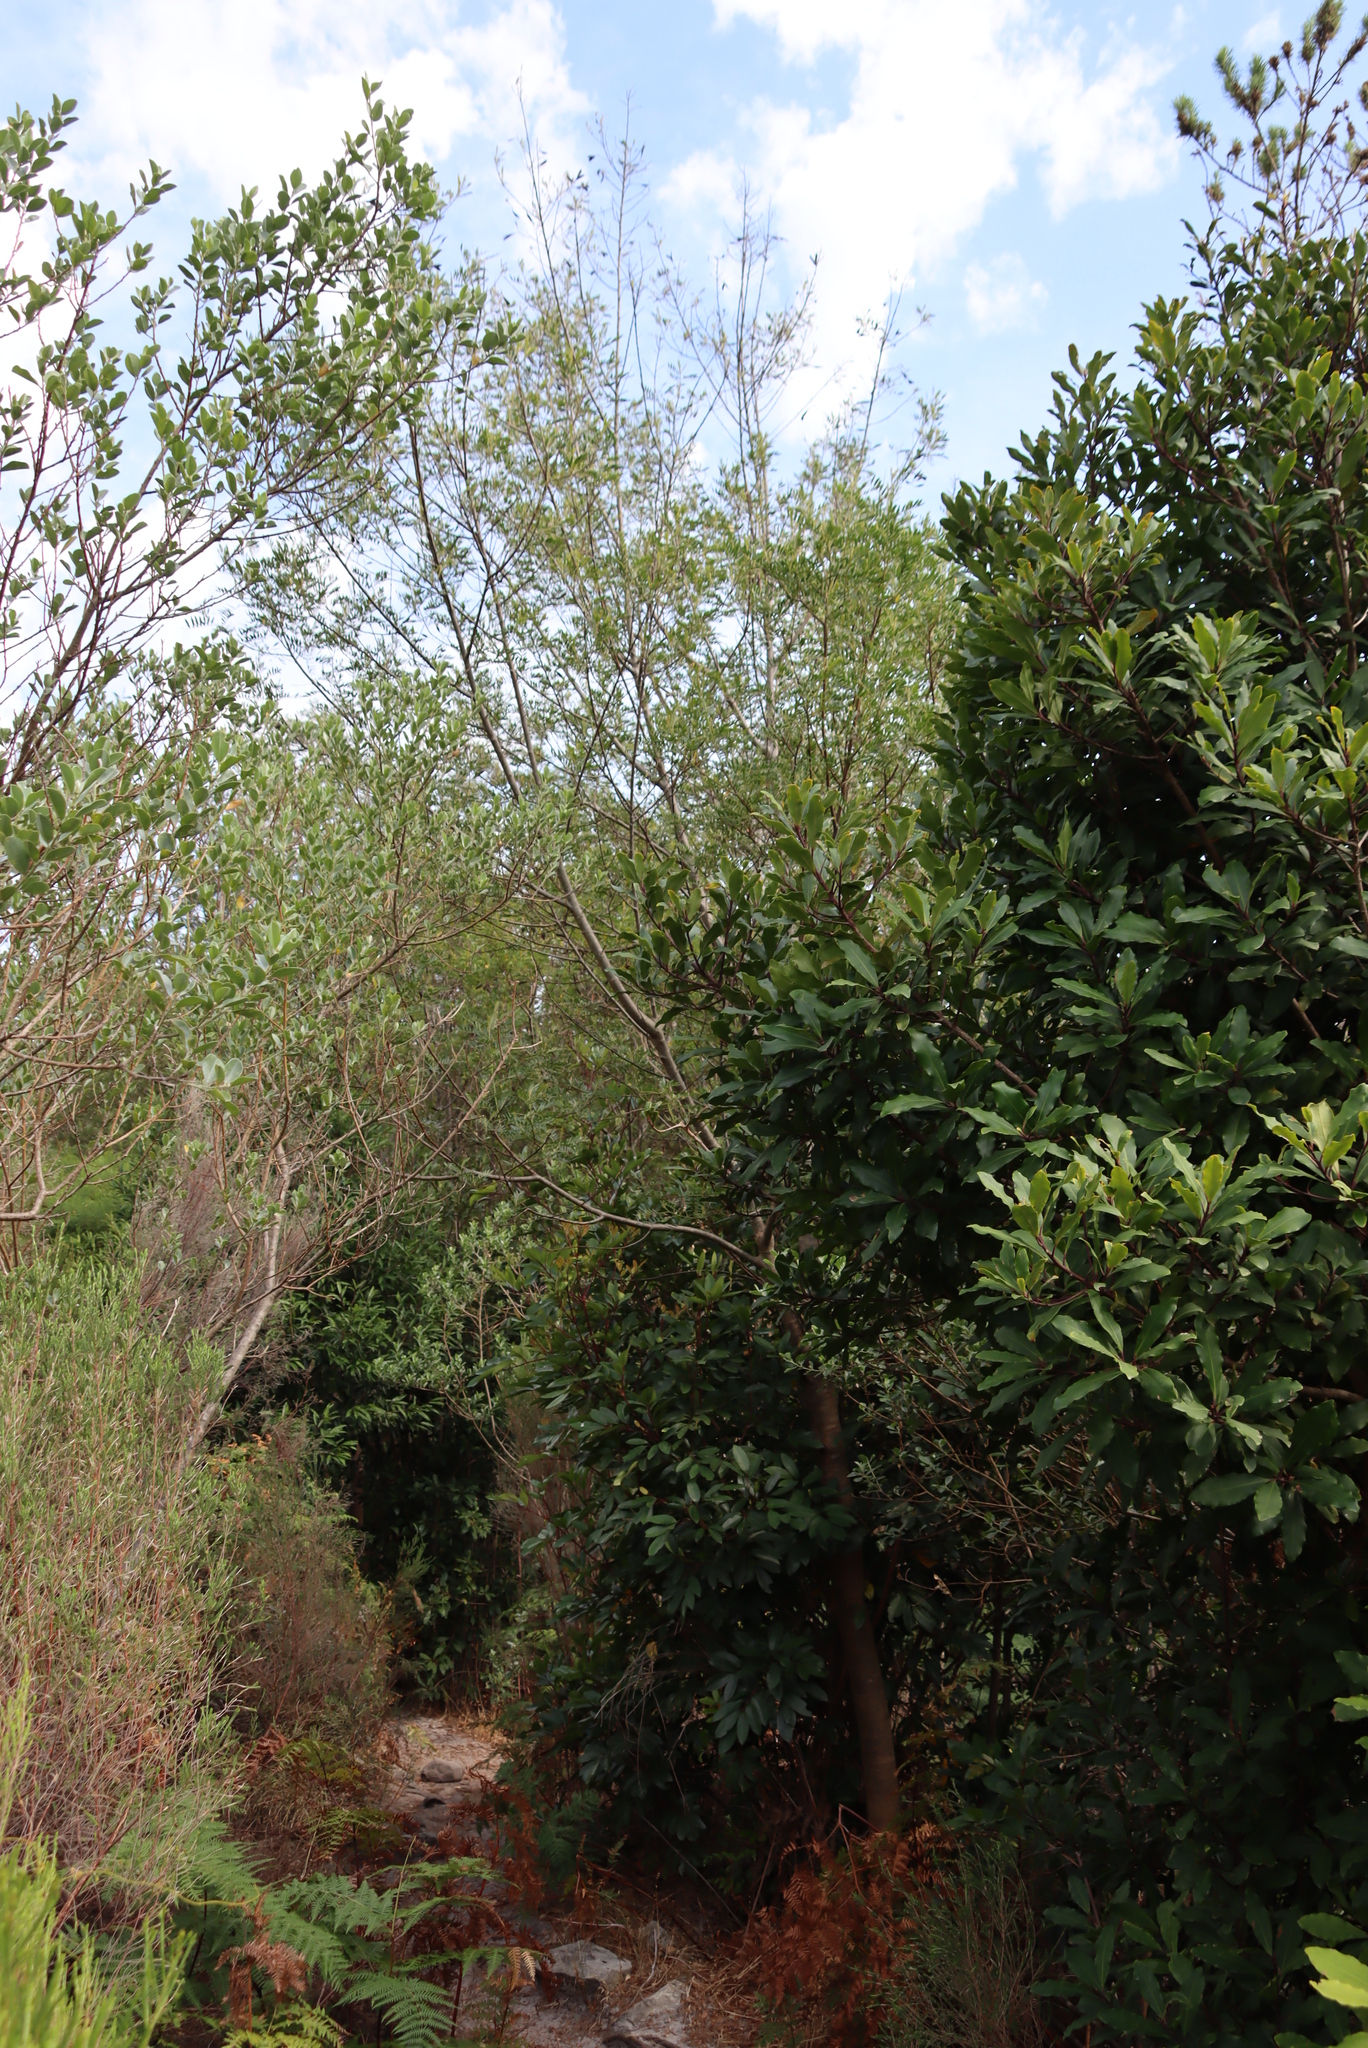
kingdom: Plantae
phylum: Tracheophyta
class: Magnoliopsida
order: Fabales
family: Fabaceae
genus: Psoralea
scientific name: Psoralea pinnata
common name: African scurfpea
